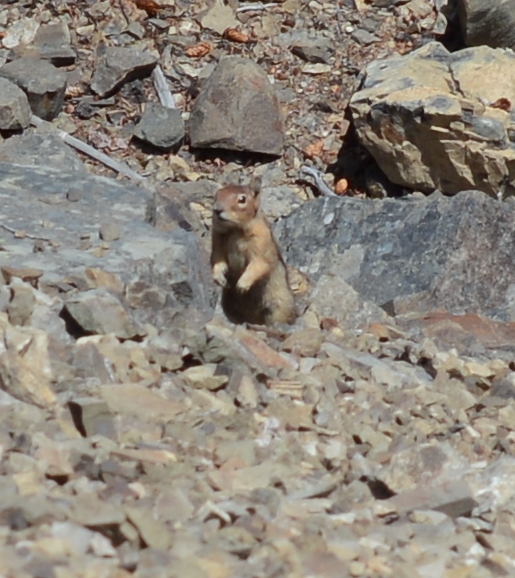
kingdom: Animalia
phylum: Chordata
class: Mammalia
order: Rodentia
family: Sciuridae
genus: Callospermophilus
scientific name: Callospermophilus saturatus
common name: Cascade golden-mantled ground squirrel
